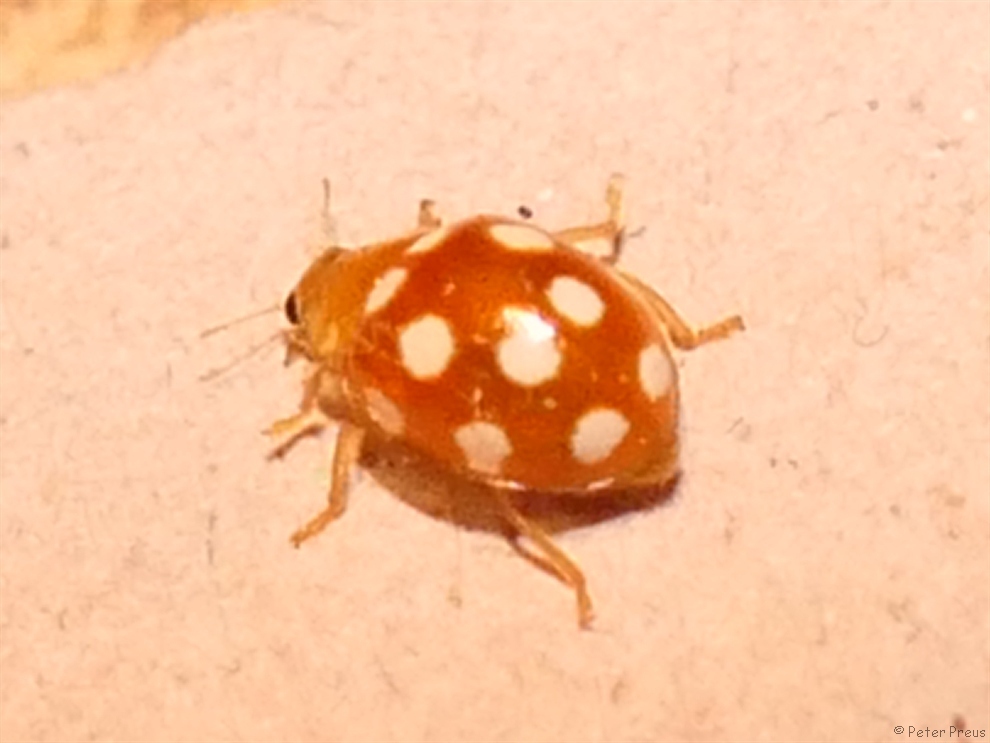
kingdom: Animalia
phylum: Arthropoda
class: Insecta
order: Coleoptera
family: Coccinellidae
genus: Vibidia
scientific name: Vibidia duodecimguttata
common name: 12-spot ladybird
